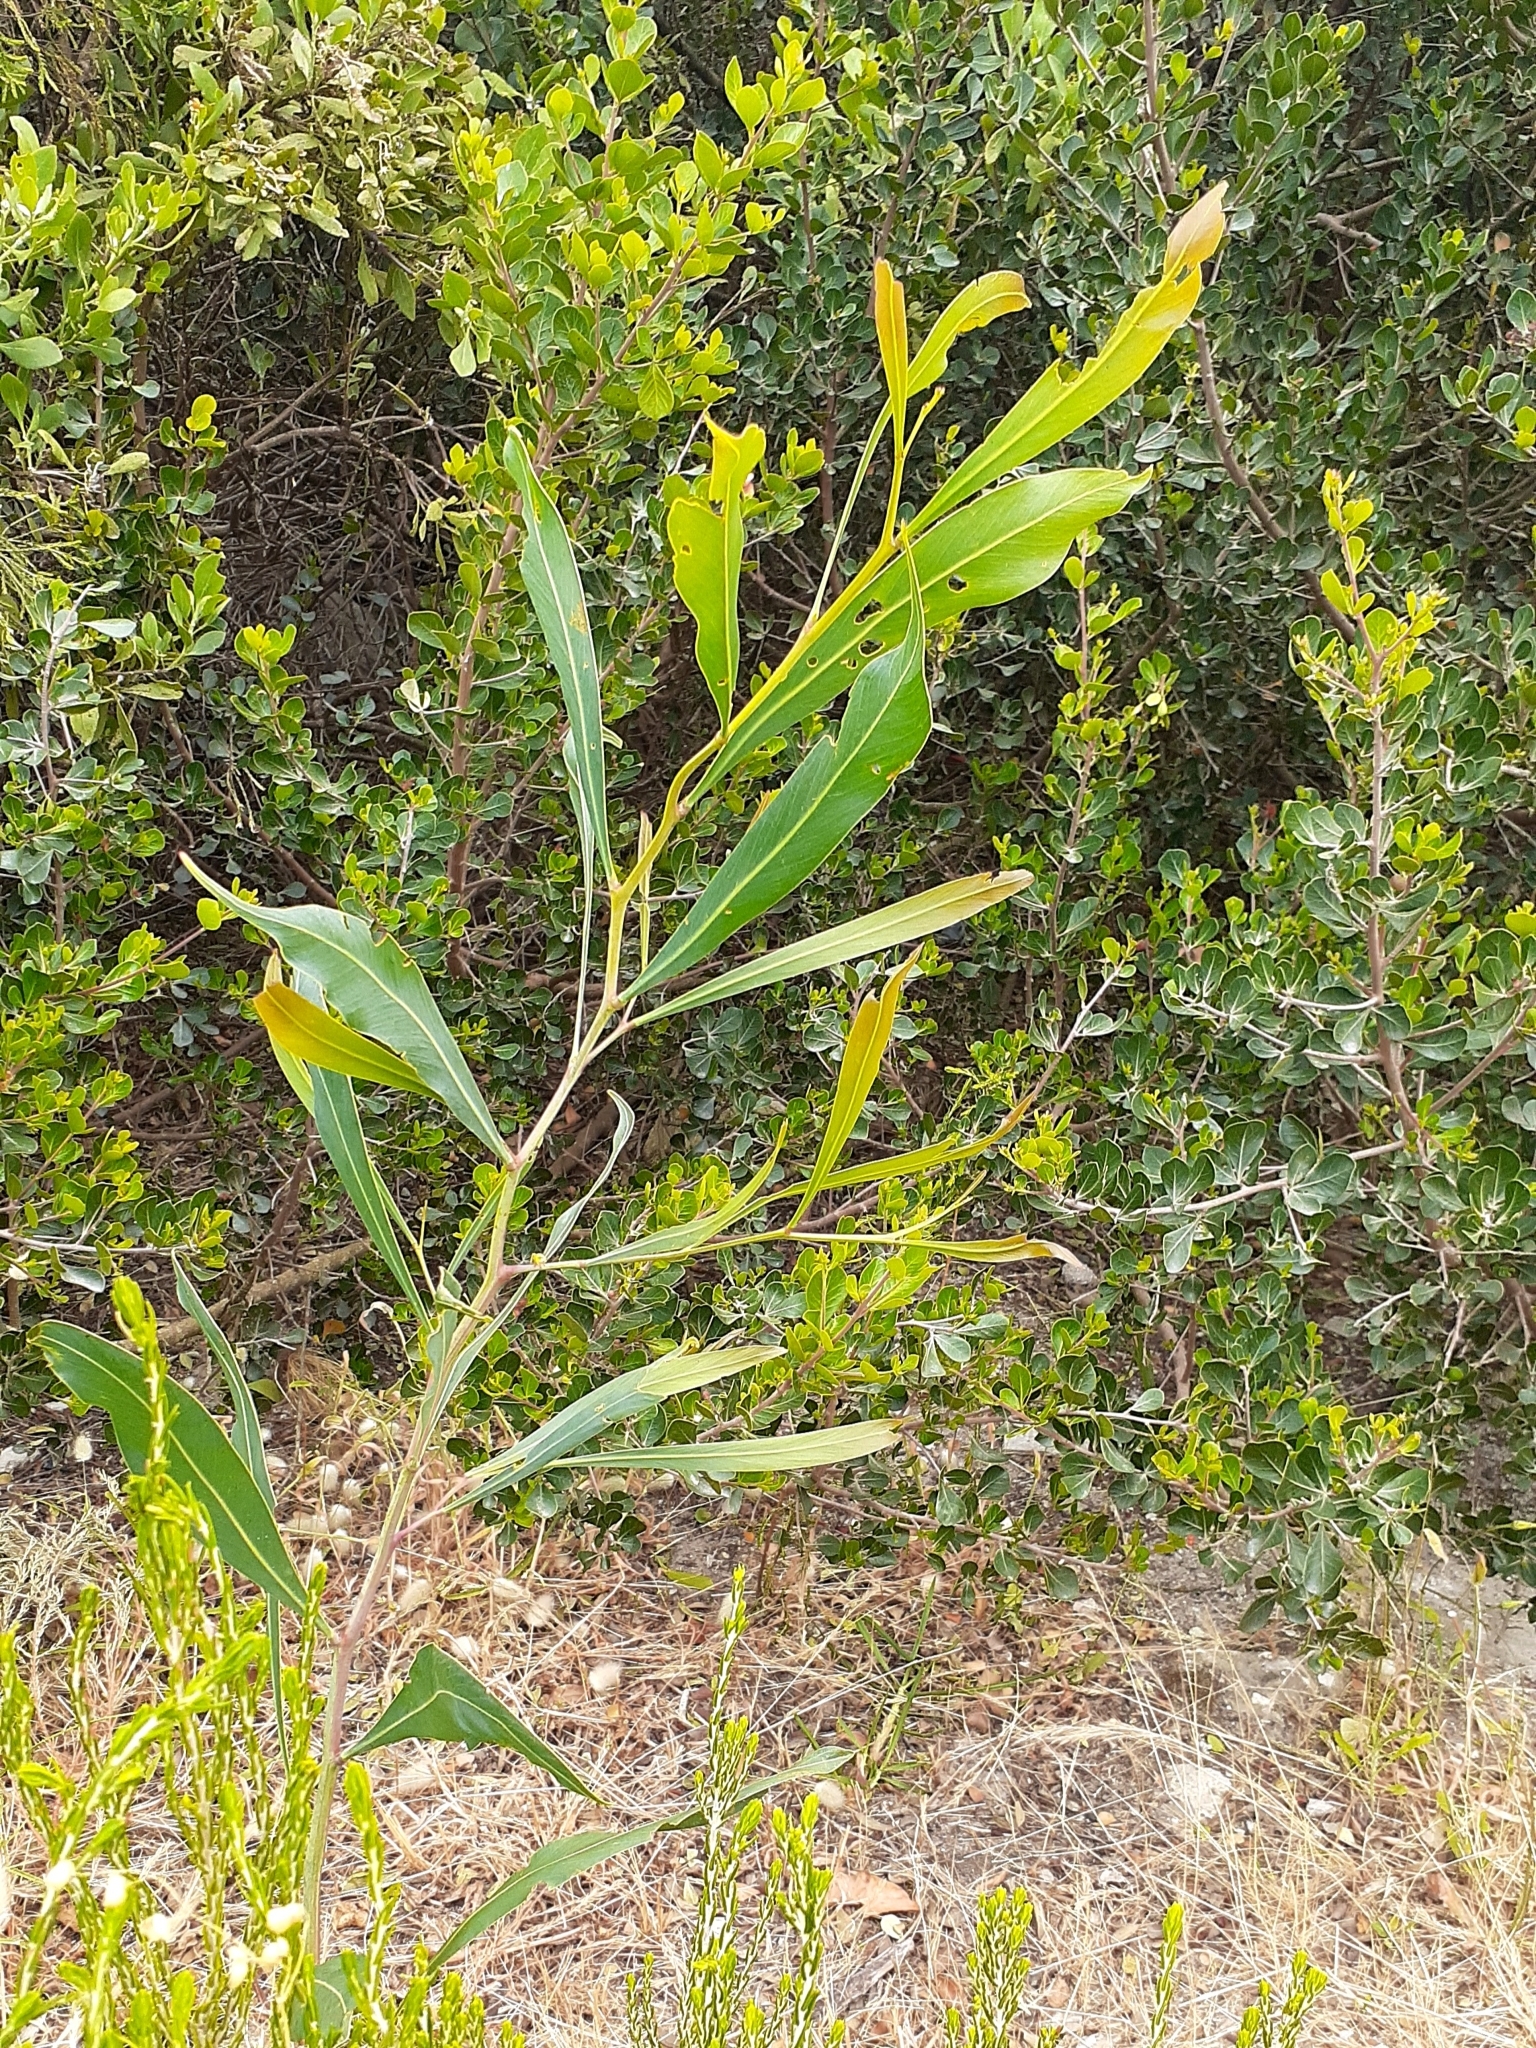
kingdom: Plantae
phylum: Tracheophyta
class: Magnoliopsida
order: Fabales
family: Fabaceae
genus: Acacia
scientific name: Acacia saligna
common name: Orange wattle
